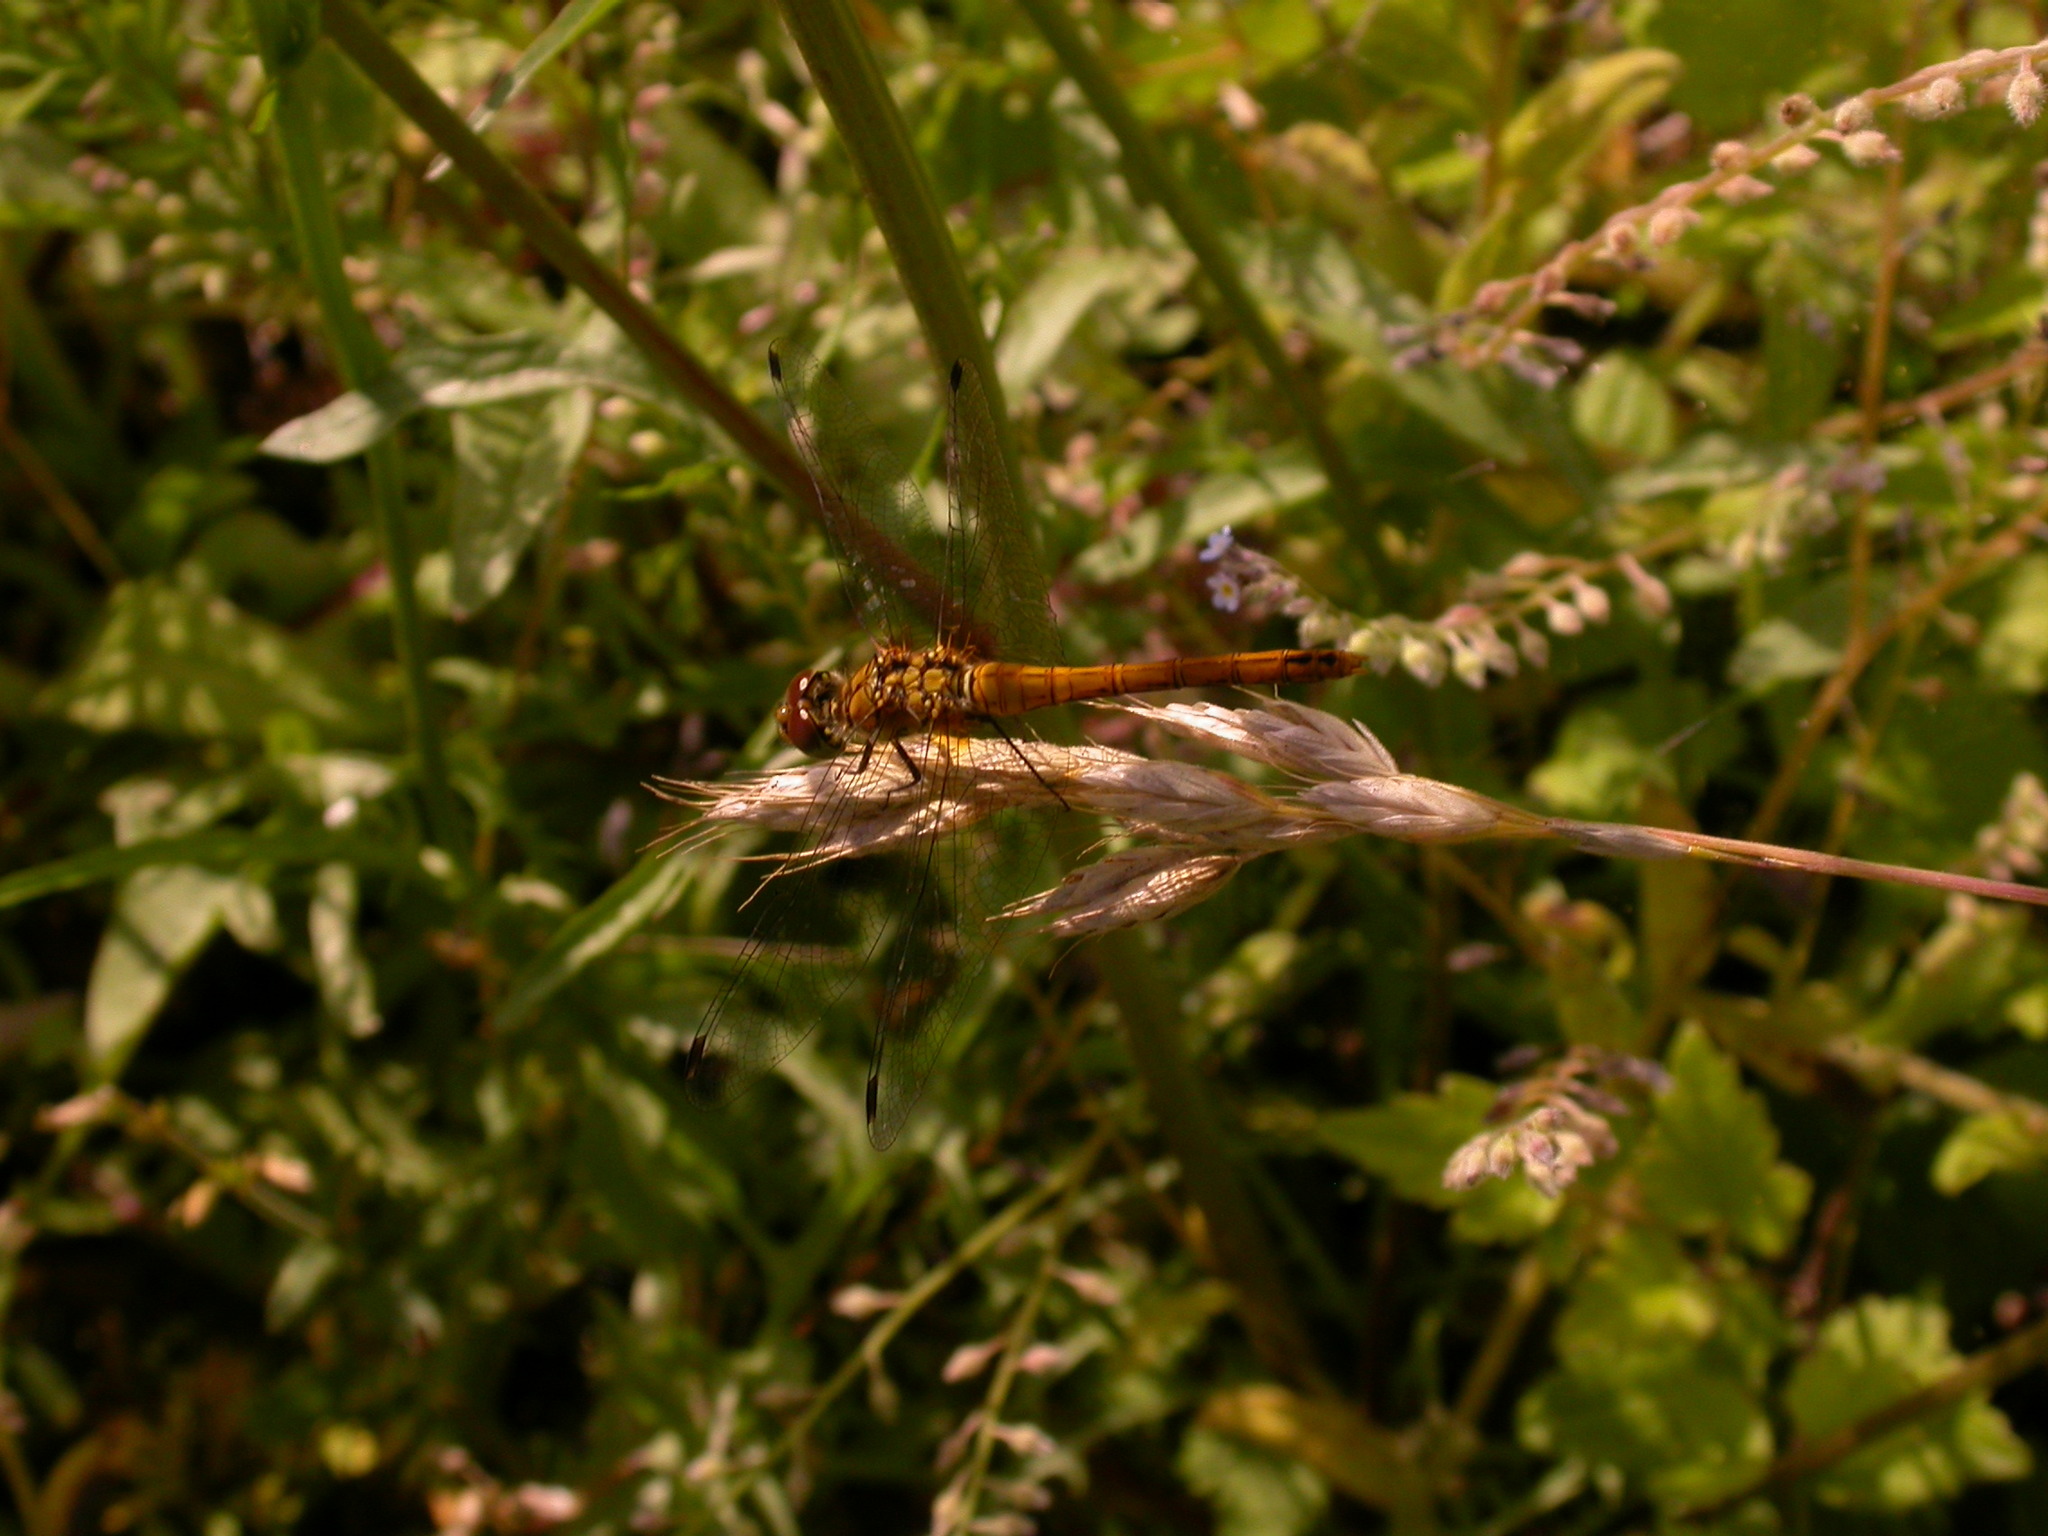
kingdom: Animalia
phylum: Arthropoda
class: Insecta
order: Odonata
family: Libellulidae
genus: Sympetrum
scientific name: Sympetrum sanguineum
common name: Ruddy darter
